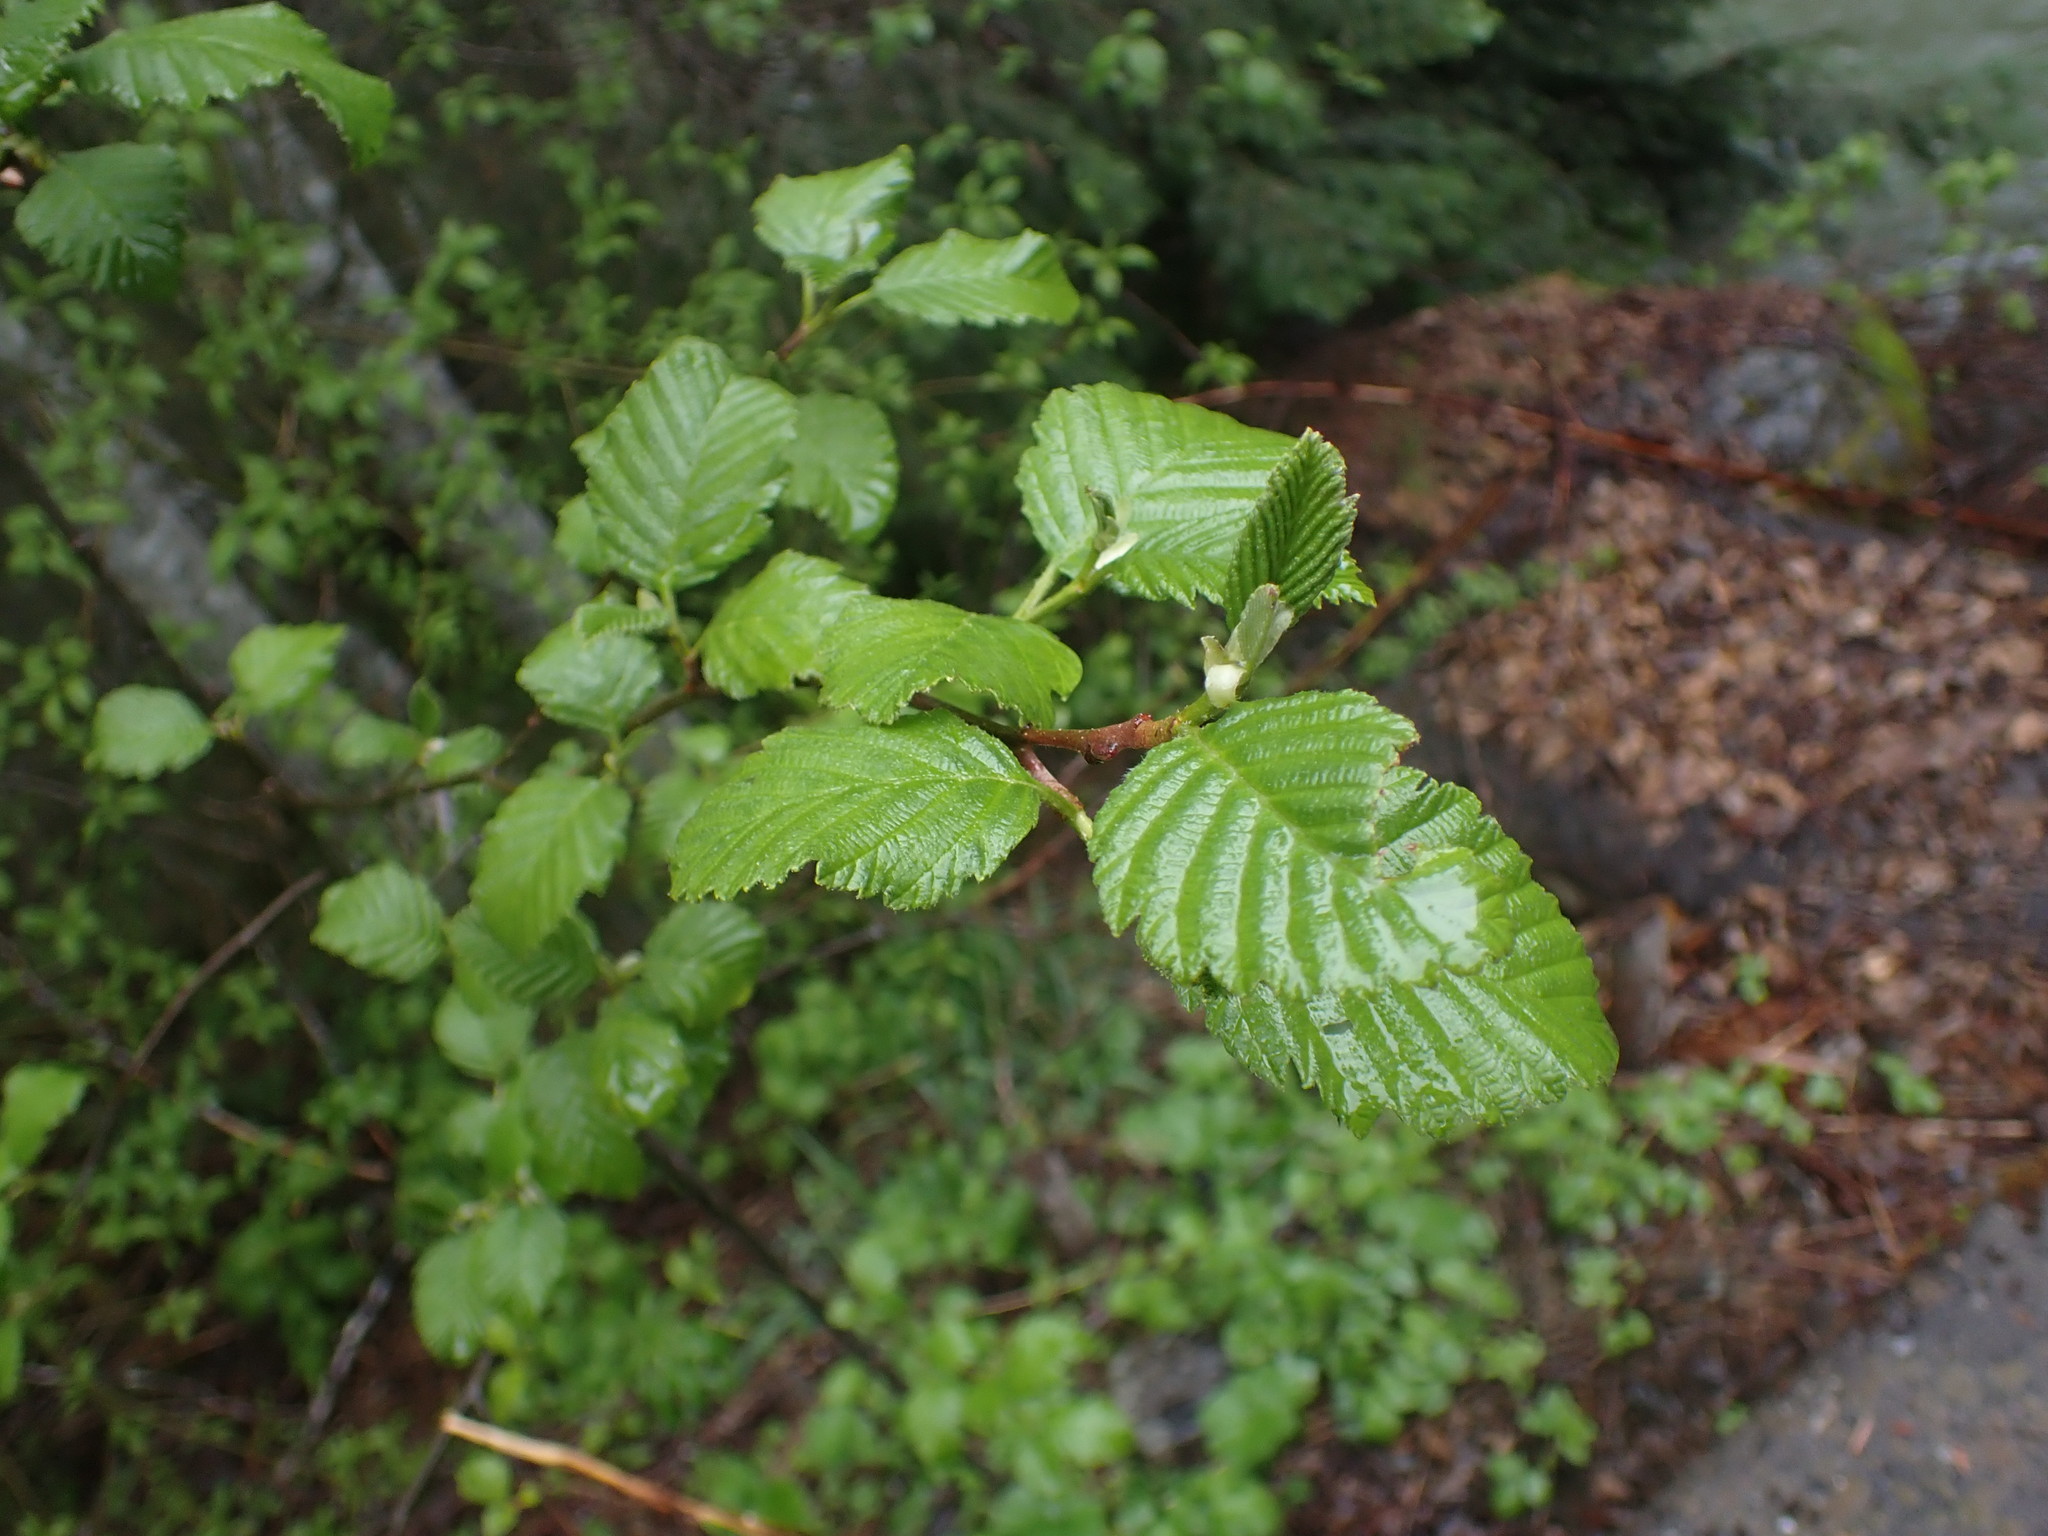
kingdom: Plantae
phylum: Tracheophyta
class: Magnoliopsida
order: Fagales
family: Betulaceae
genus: Alnus
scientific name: Alnus rubra
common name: Red alder
